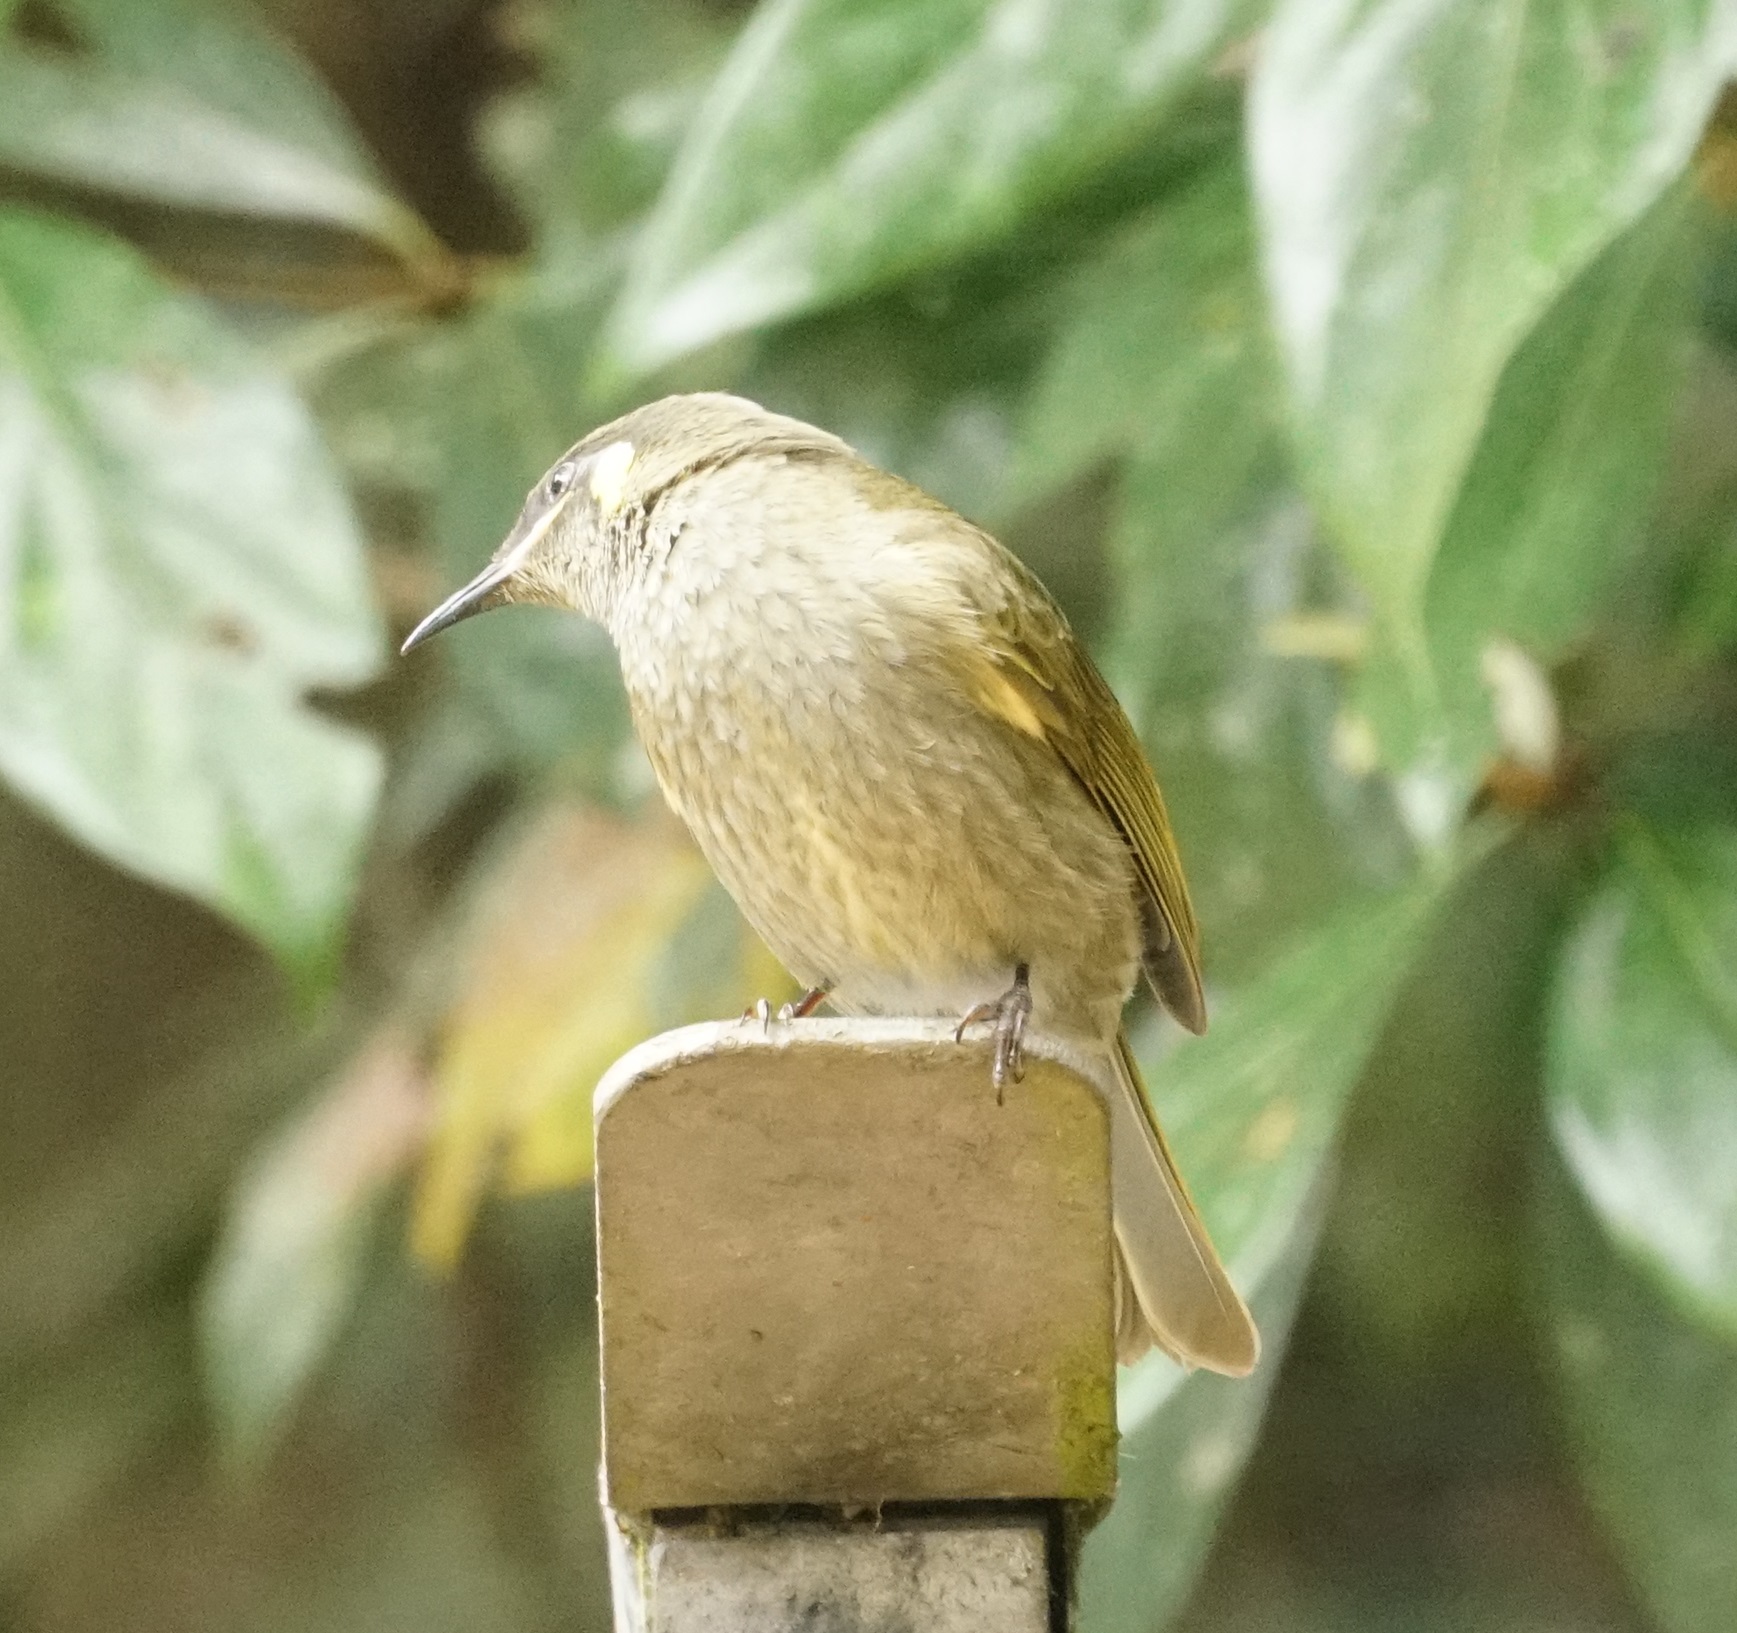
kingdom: Animalia
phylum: Chordata
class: Aves
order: Passeriformes
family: Meliphagidae
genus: Meliphaga
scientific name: Meliphaga lewinii
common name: Lewin's honeyeater
